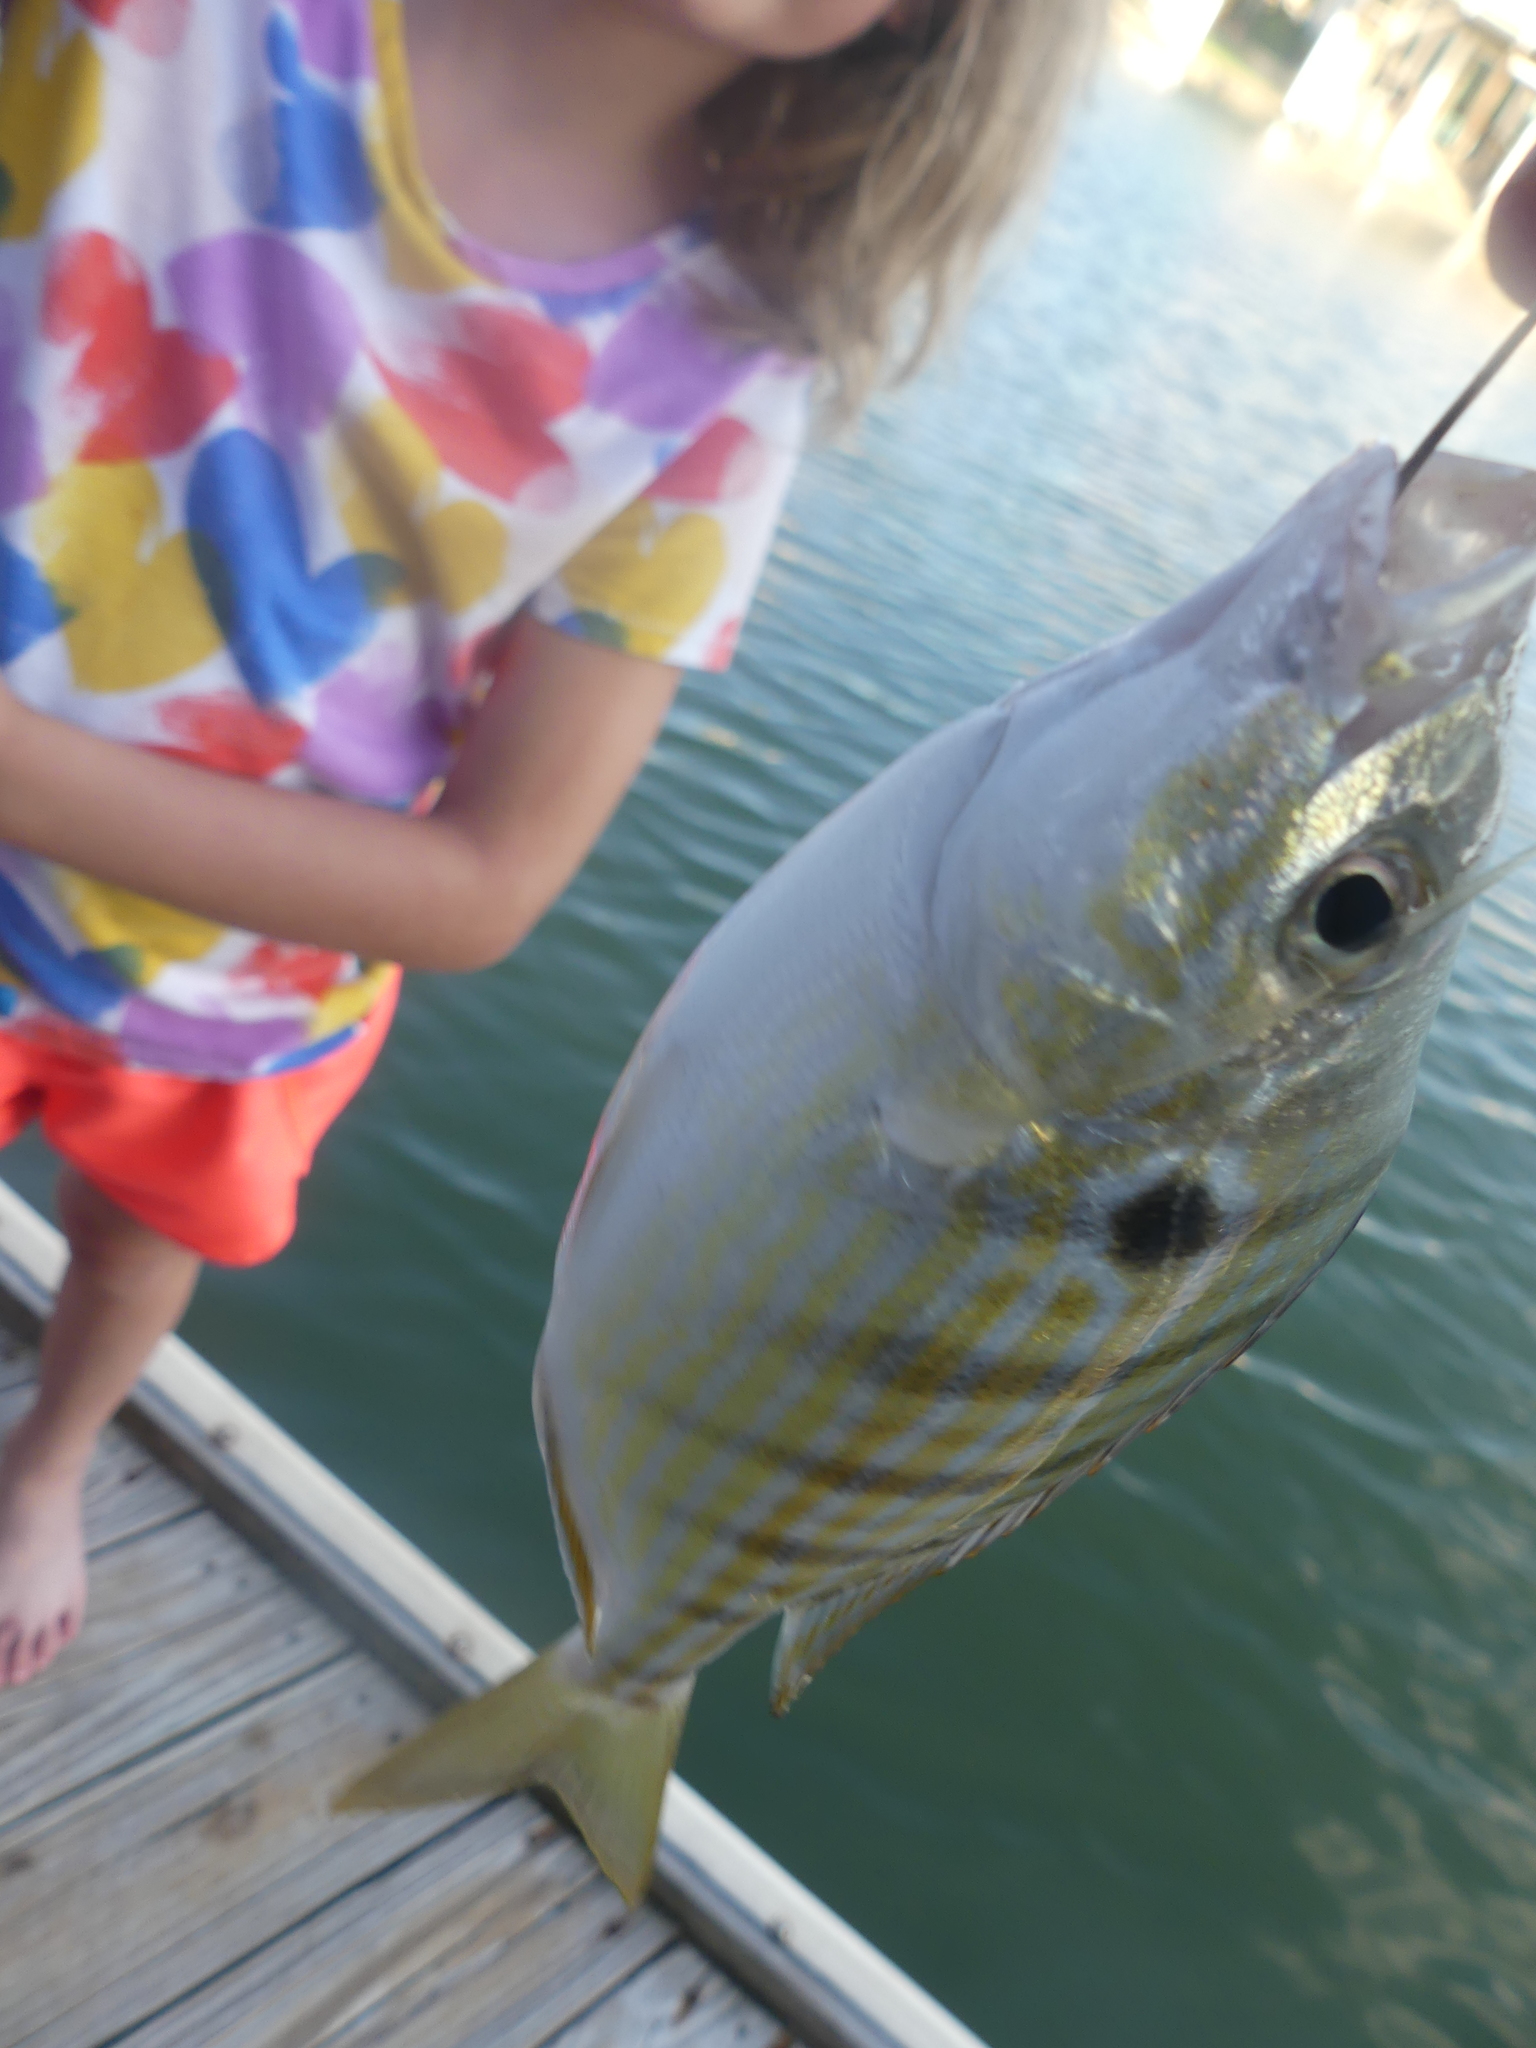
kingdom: Animalia
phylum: Chordata
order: Perciformes
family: Sparidae
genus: Lagodon
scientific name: Lagodon rhomboides
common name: Pinfish
